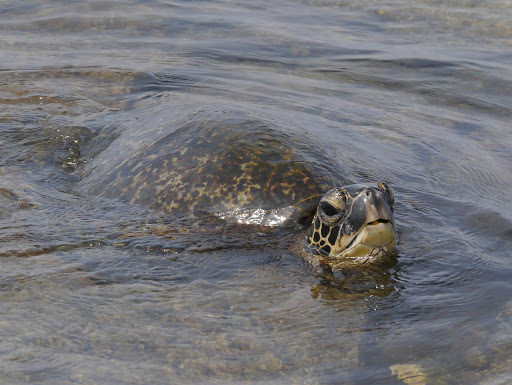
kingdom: Animalia
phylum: Chordata
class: Testudines
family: Cheloniidae
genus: Chelonia
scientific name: Chelonia mydas
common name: Green turtle
